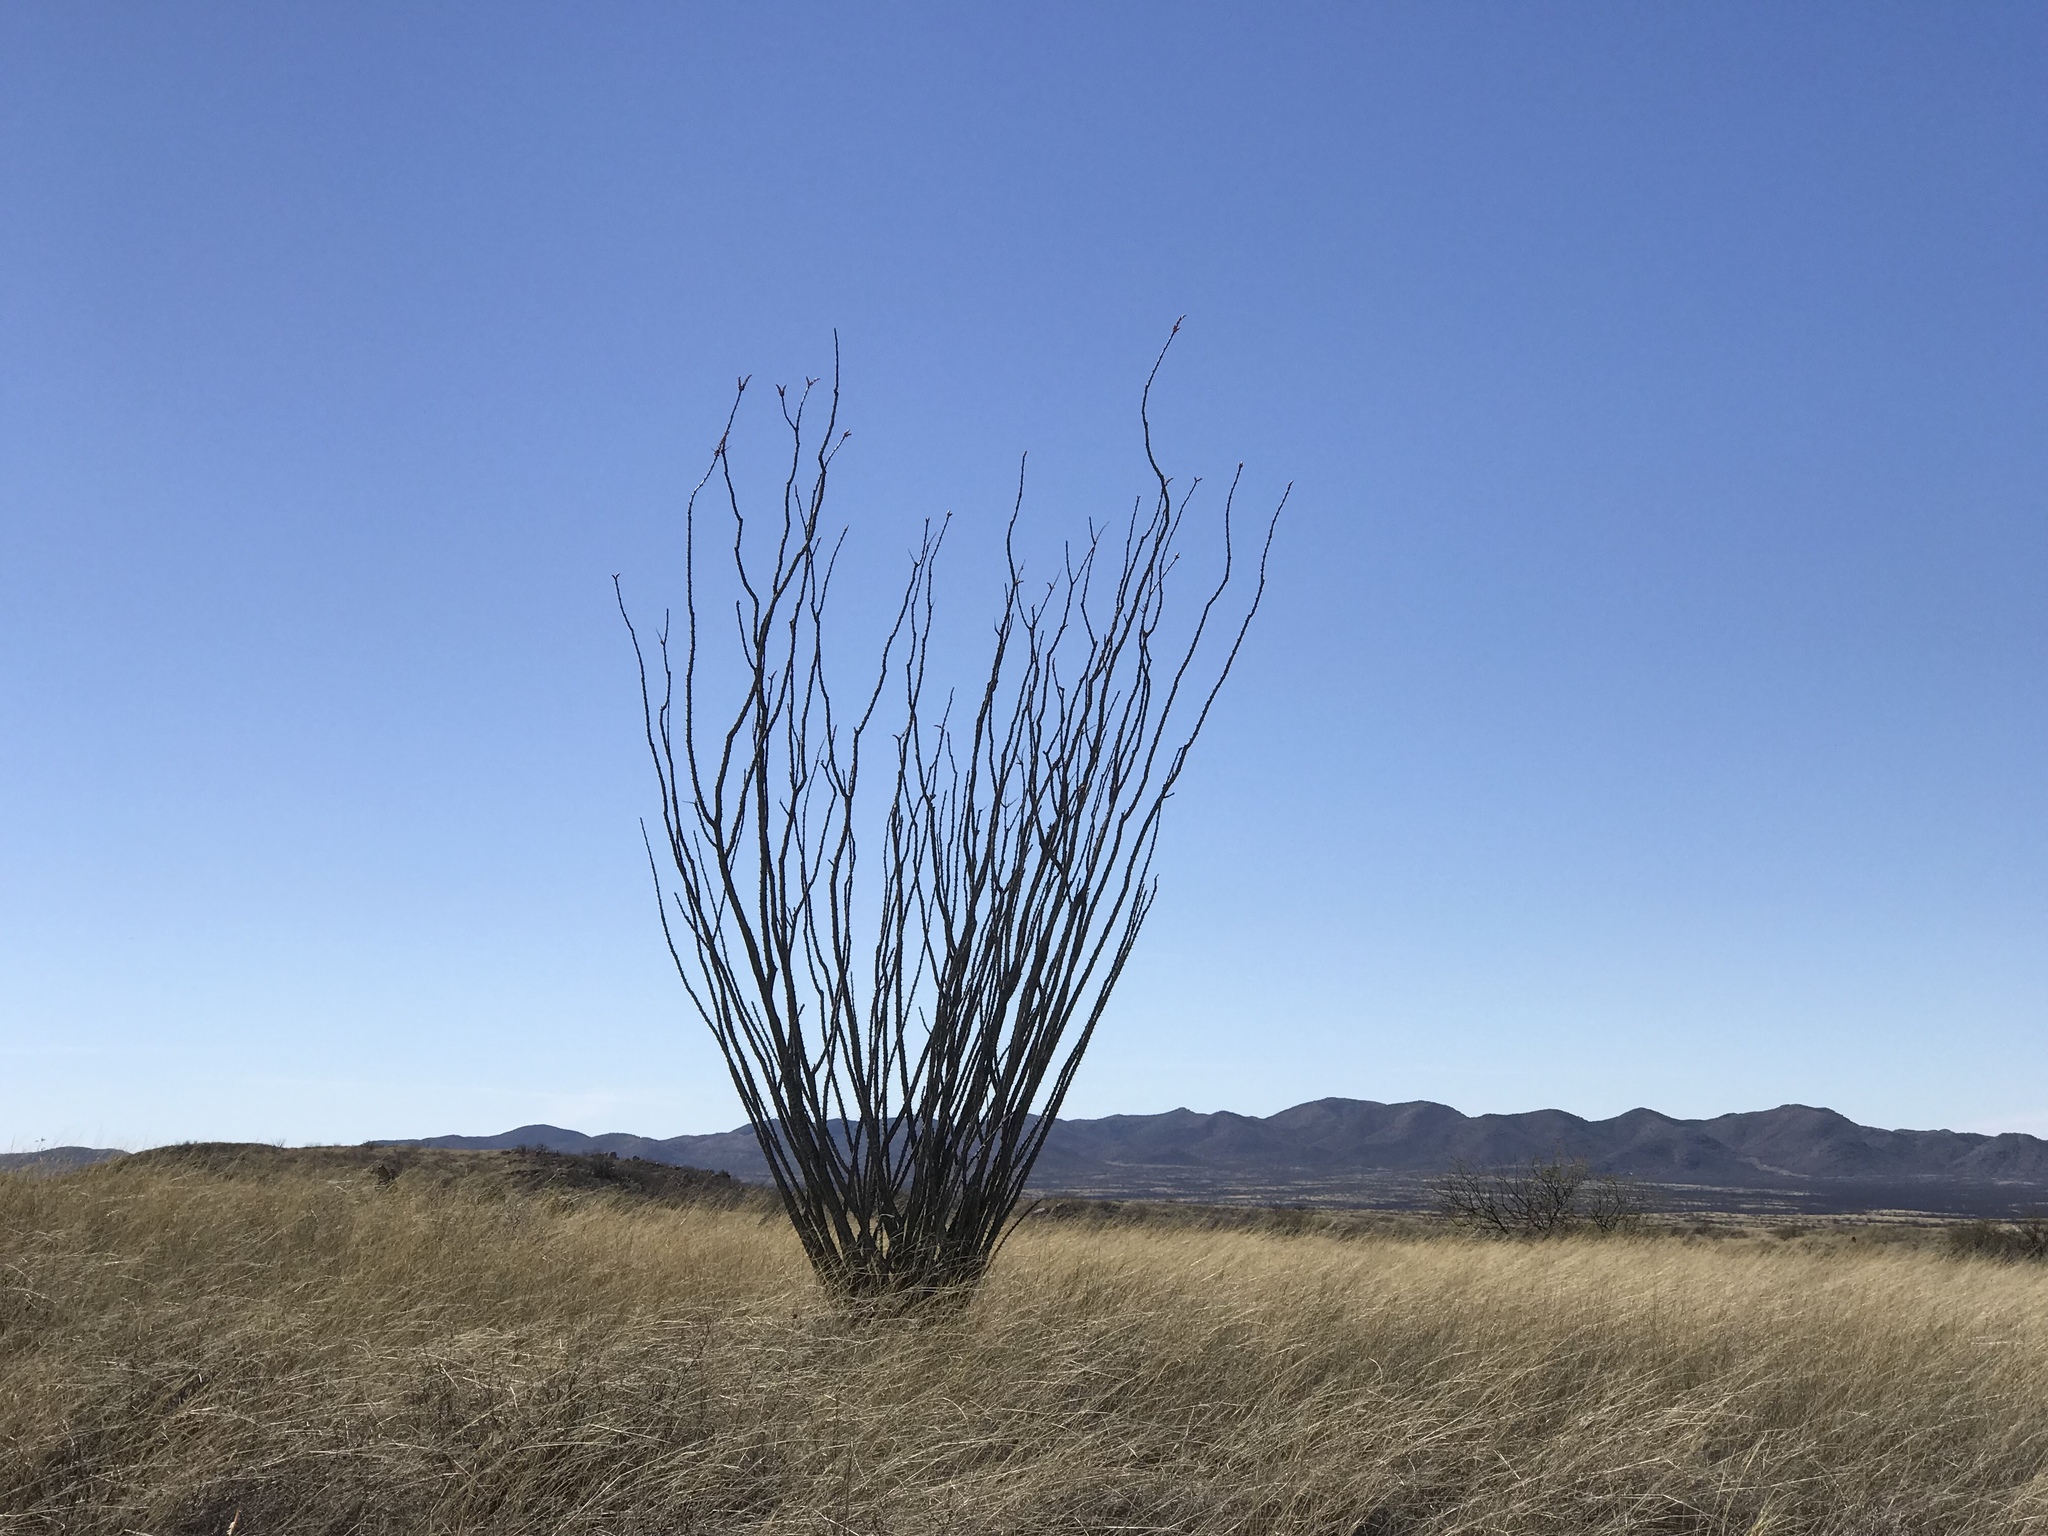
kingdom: Plantae
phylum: Tracheophyta
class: Magnoliopsida
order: Ericales
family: Fouquieriaceae
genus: Fouquieria
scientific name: Fouquieria splendens
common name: Vine-cactus
